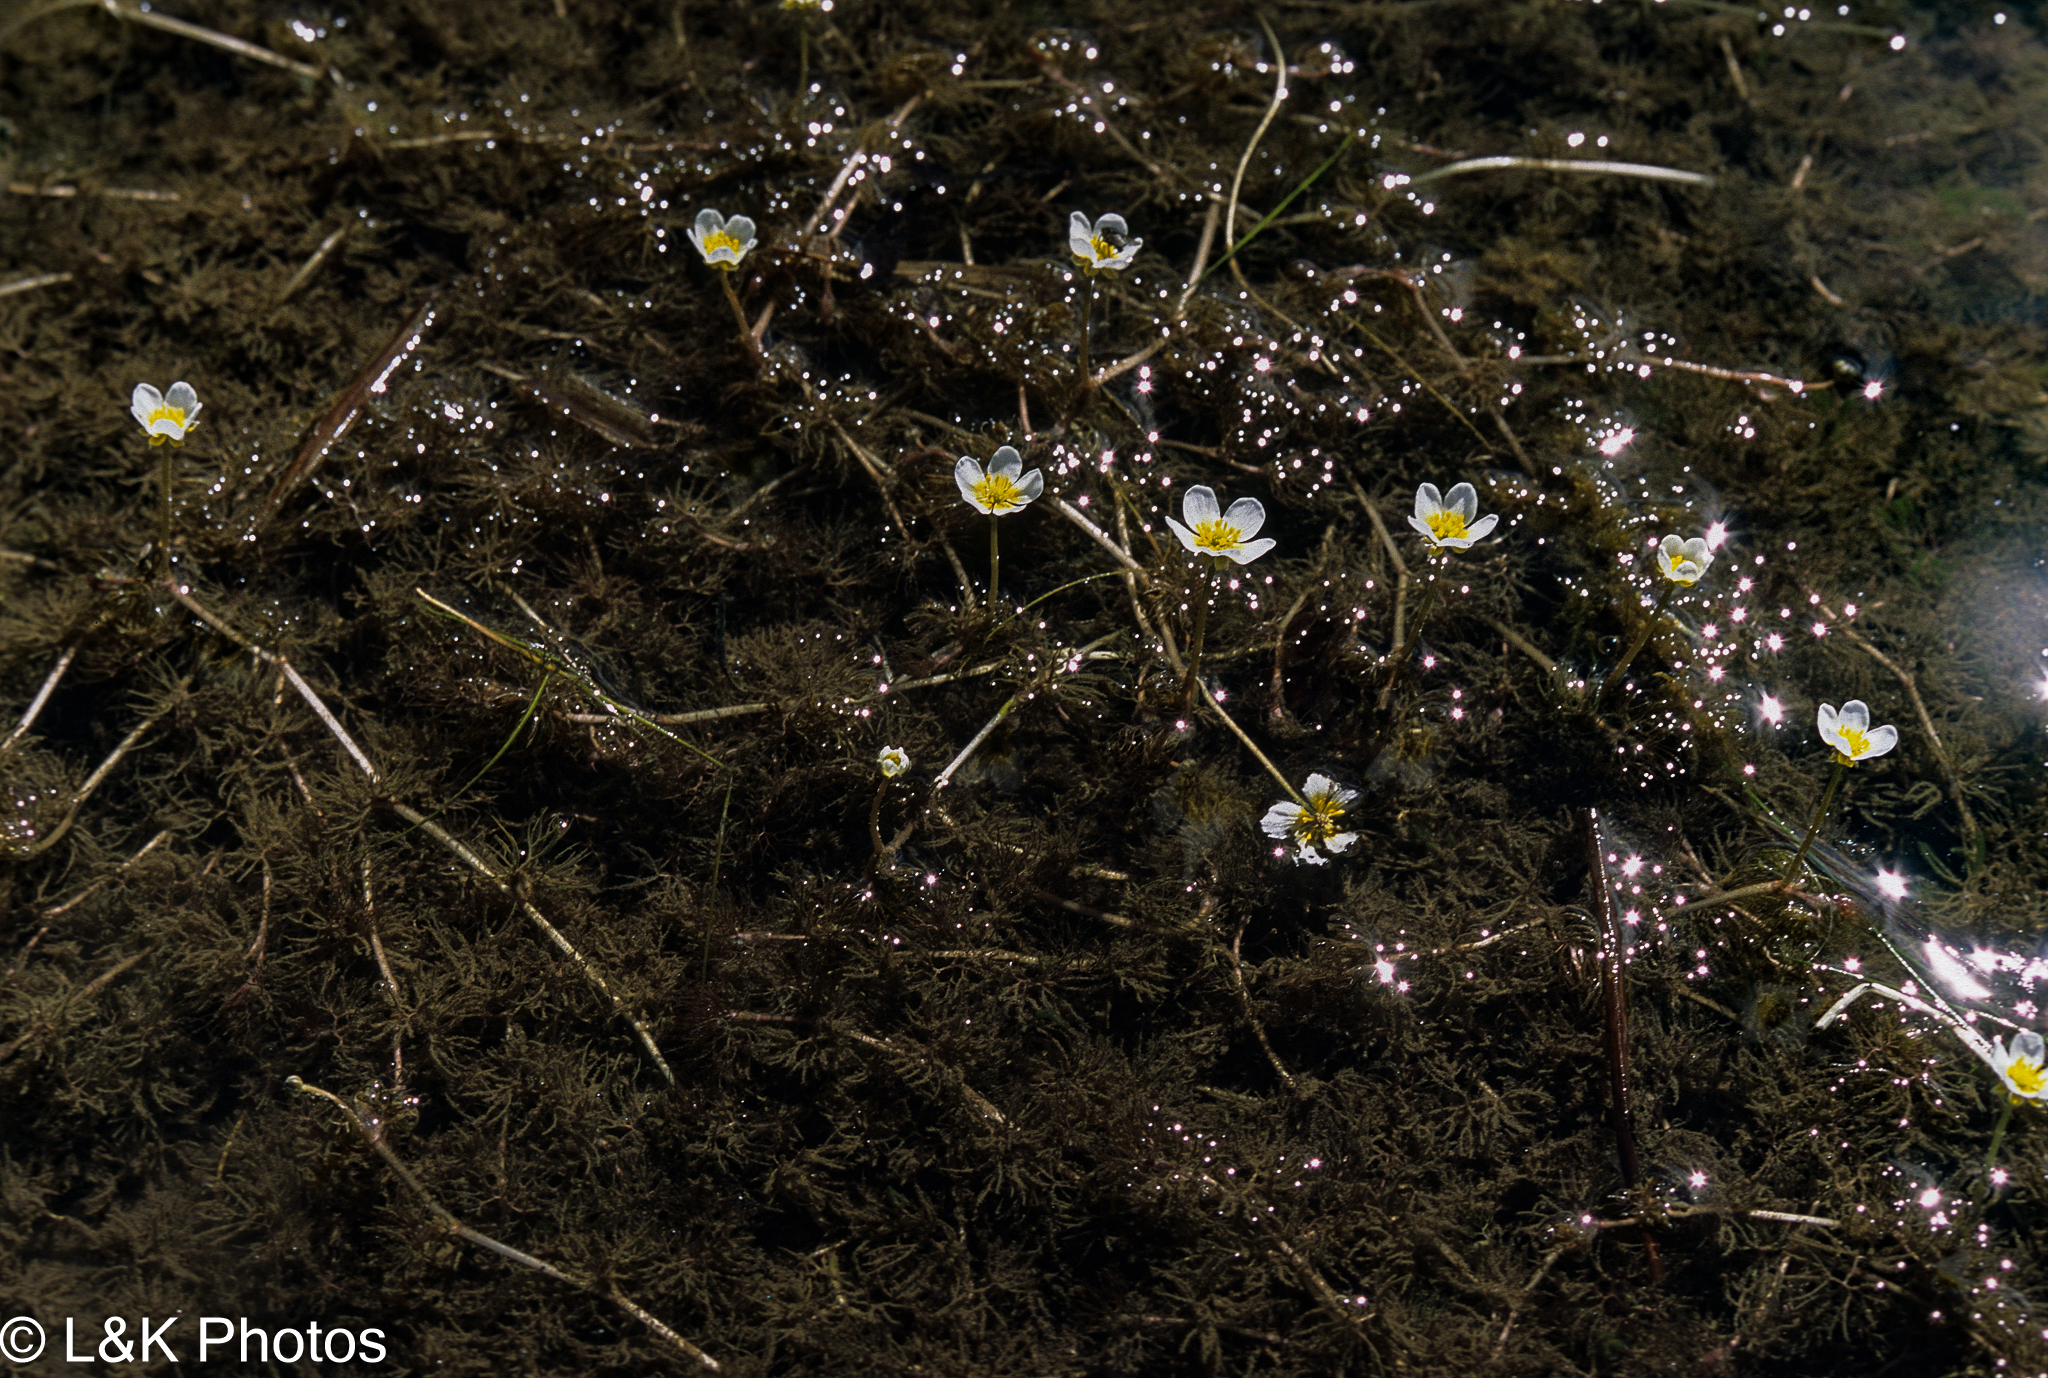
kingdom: Plantae
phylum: Tracheophyta
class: Magnoliopsida
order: Ranunculales
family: Ranunculaceae
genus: Ranunculus
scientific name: Ranunculus longirostris
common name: Curly white water-crowfoot
